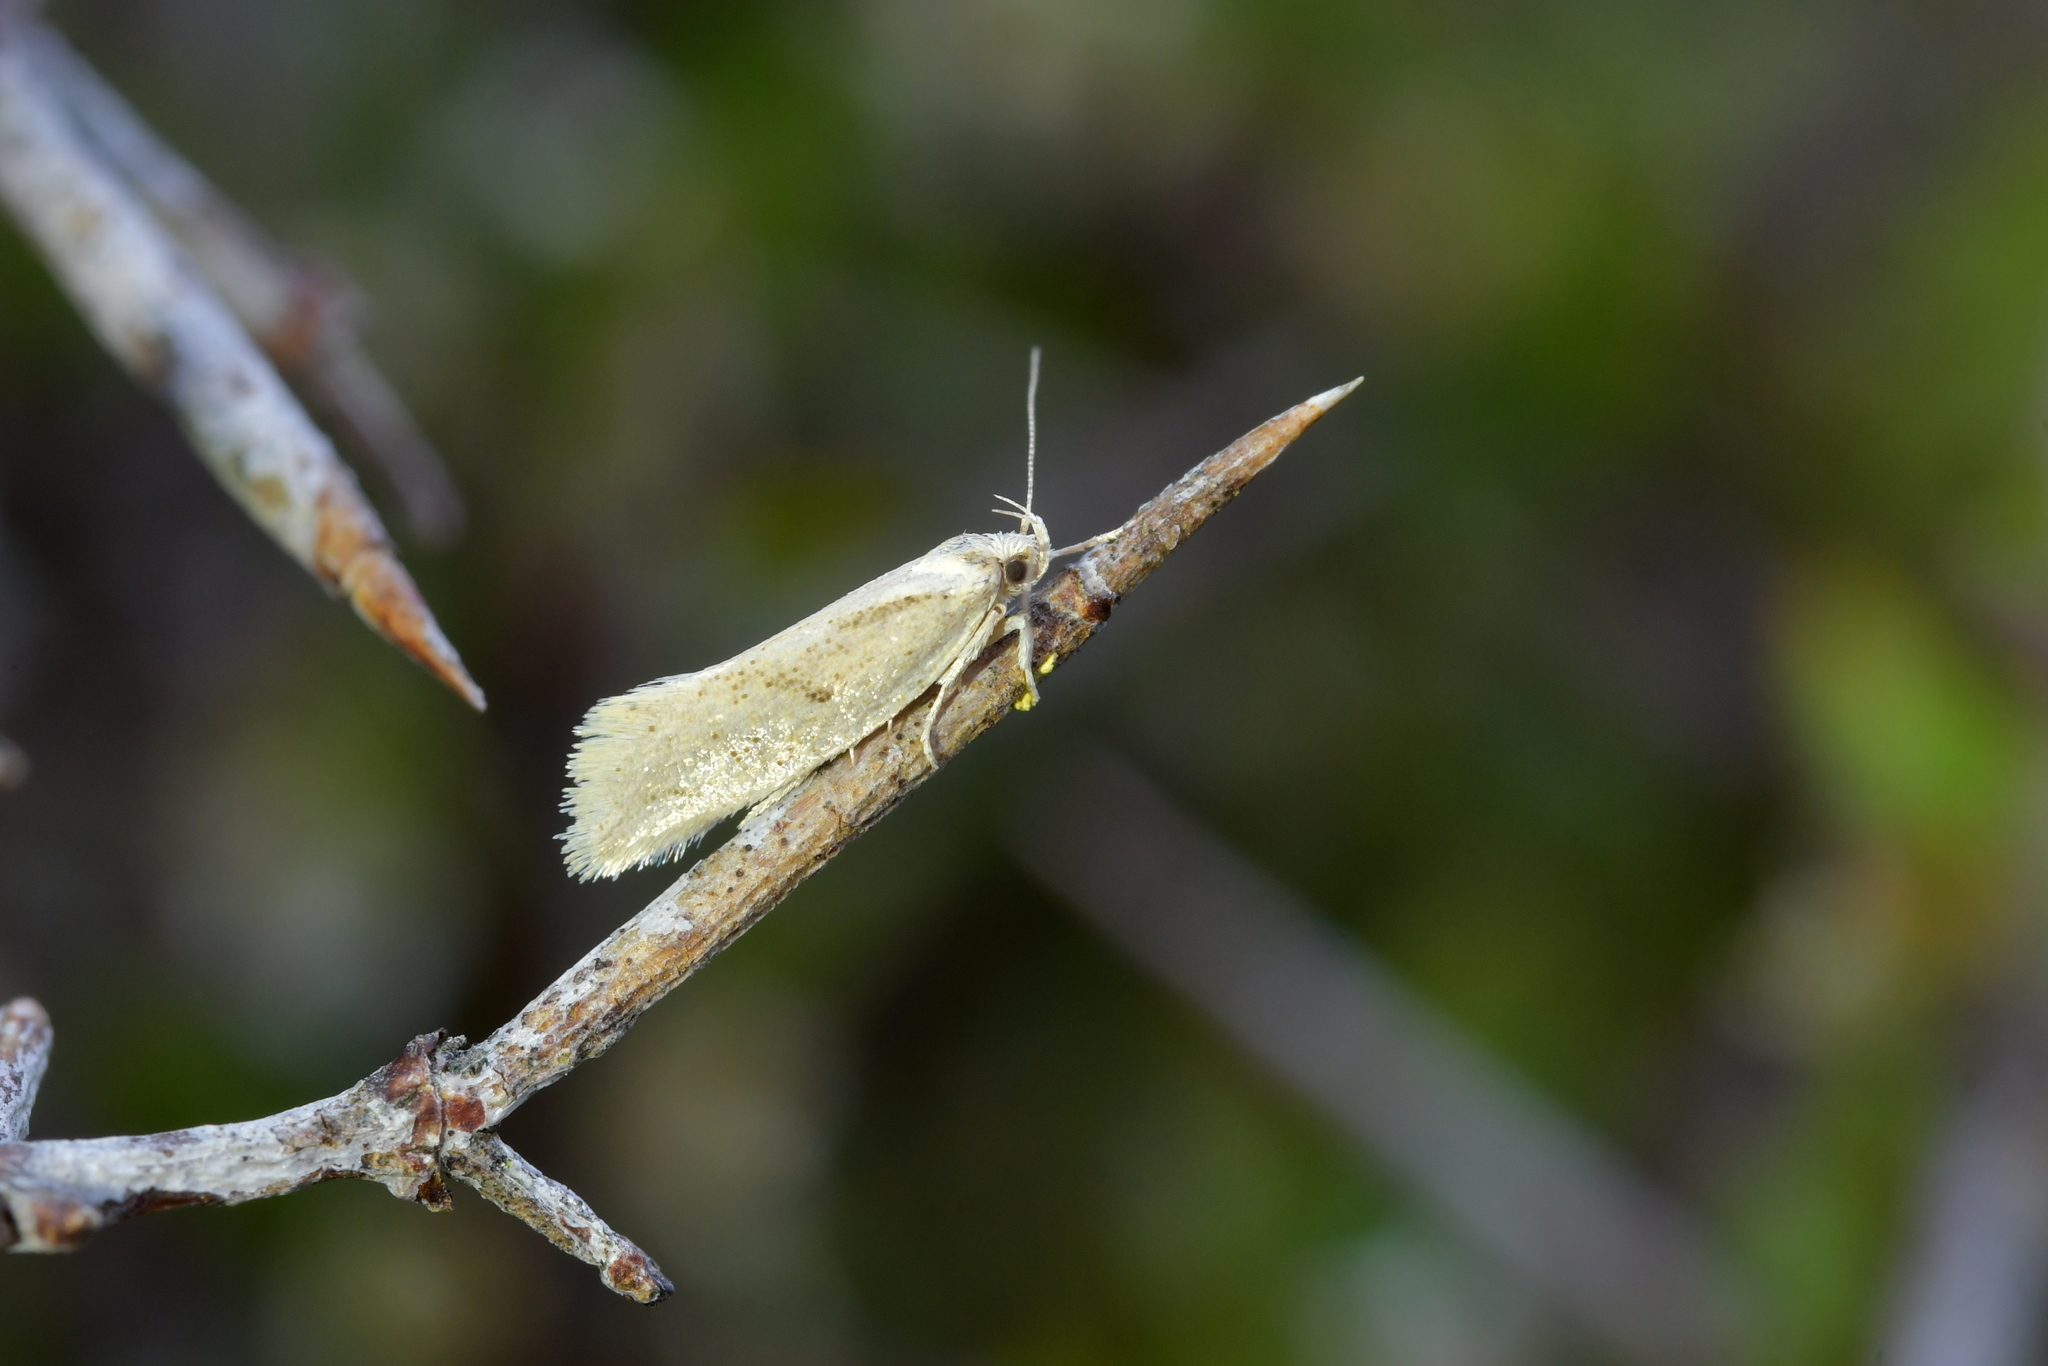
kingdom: Animalia
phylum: Arthropoda
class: Insecta
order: Lepidoptera
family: Oecophoridae
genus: Tingena
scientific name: Tingena chloradelpha
